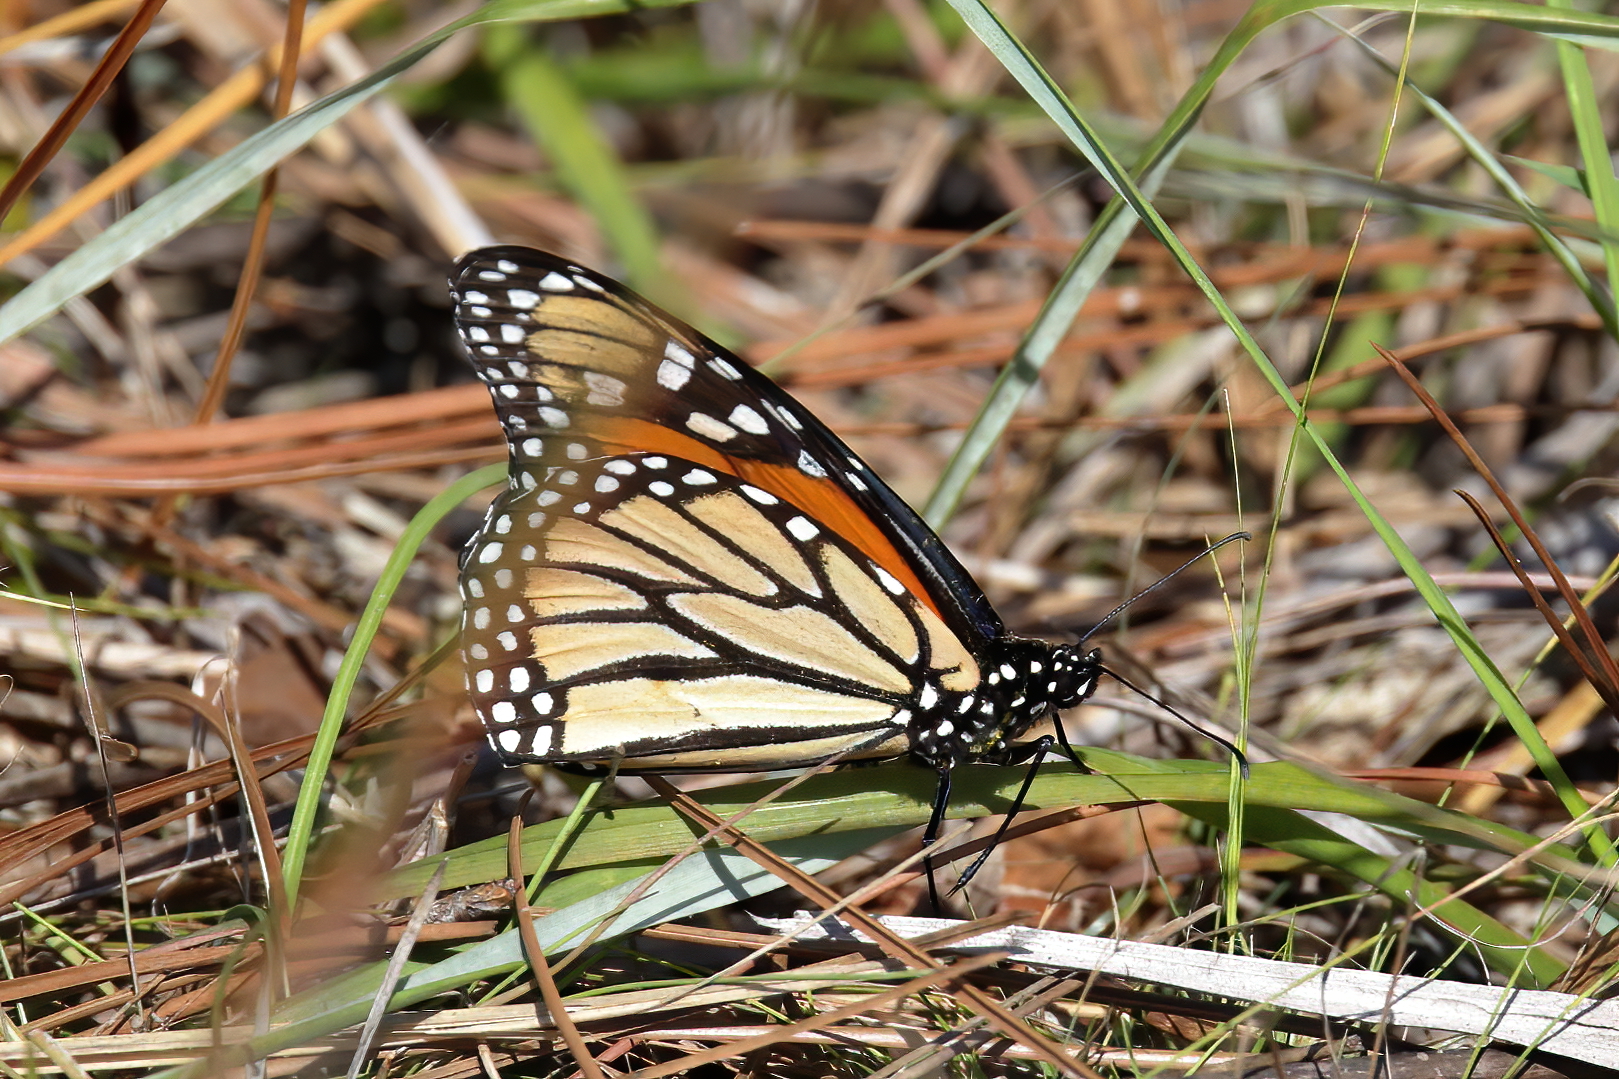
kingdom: Animalia
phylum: Arthropoda
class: Insecta
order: Lepidoptera
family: Nymphalidae
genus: Danaus
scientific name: Danaus plexippus
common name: Monarch
